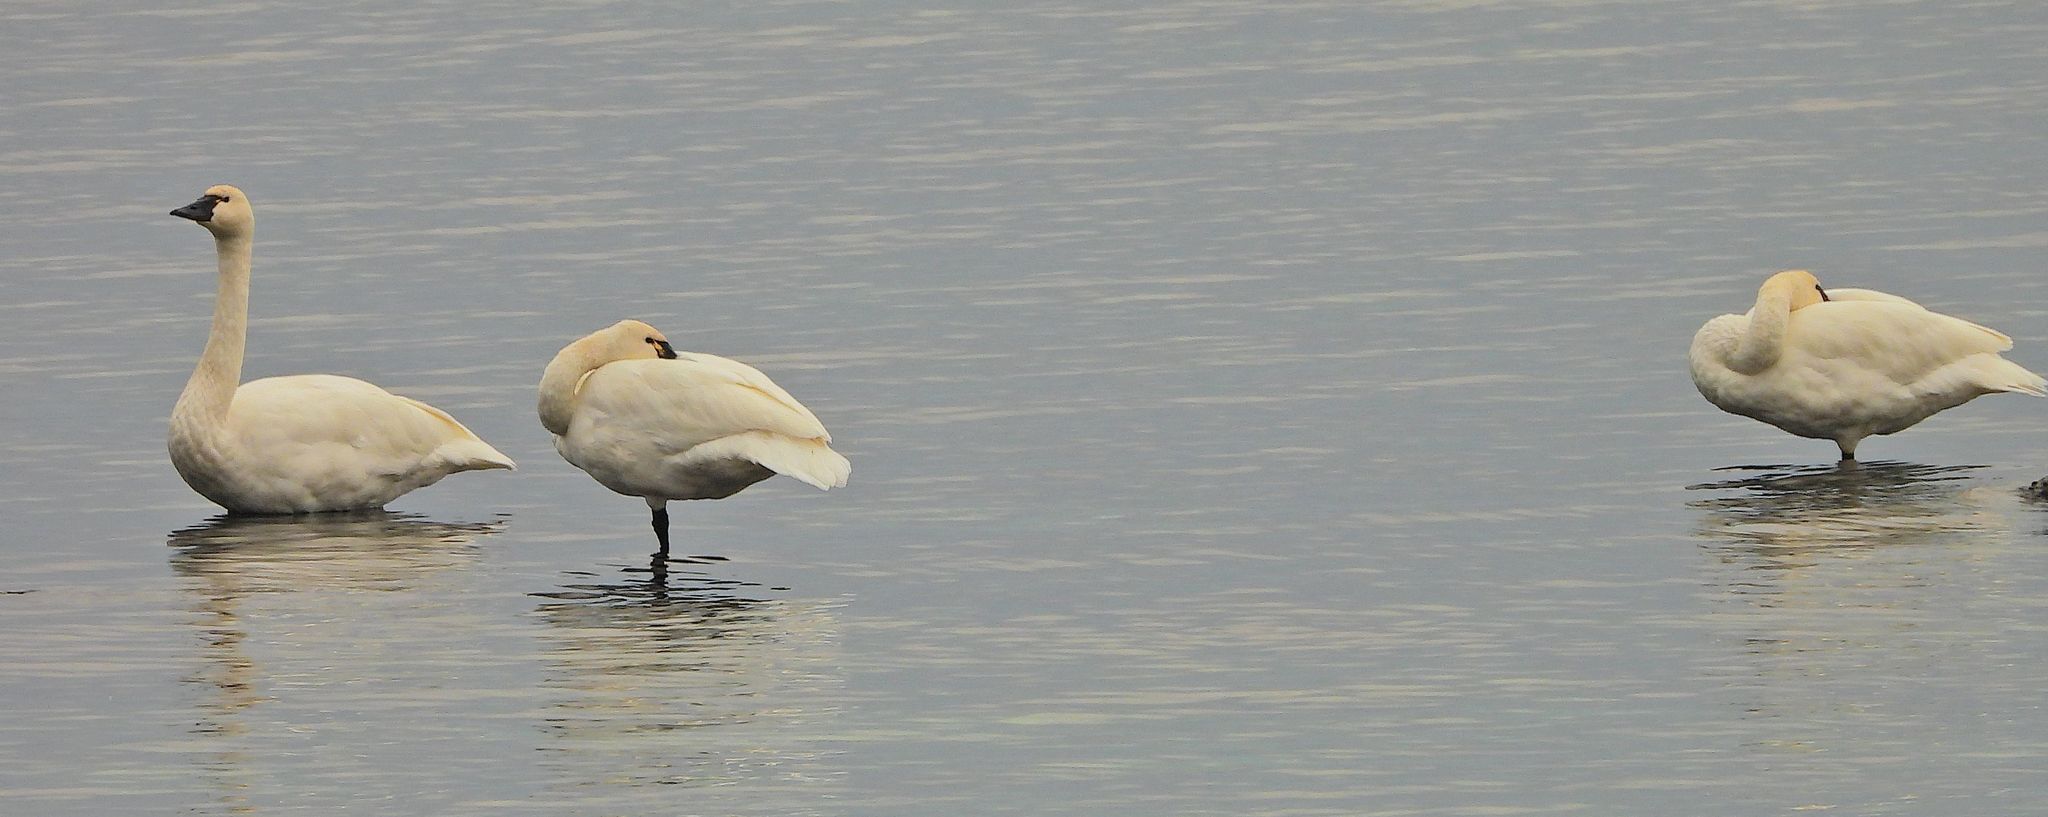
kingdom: Animalia
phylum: Chordata
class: Aves
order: Anseriformes
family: Anatidae
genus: Cygnus
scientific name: Cygnus columbianus
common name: Tundra swan
